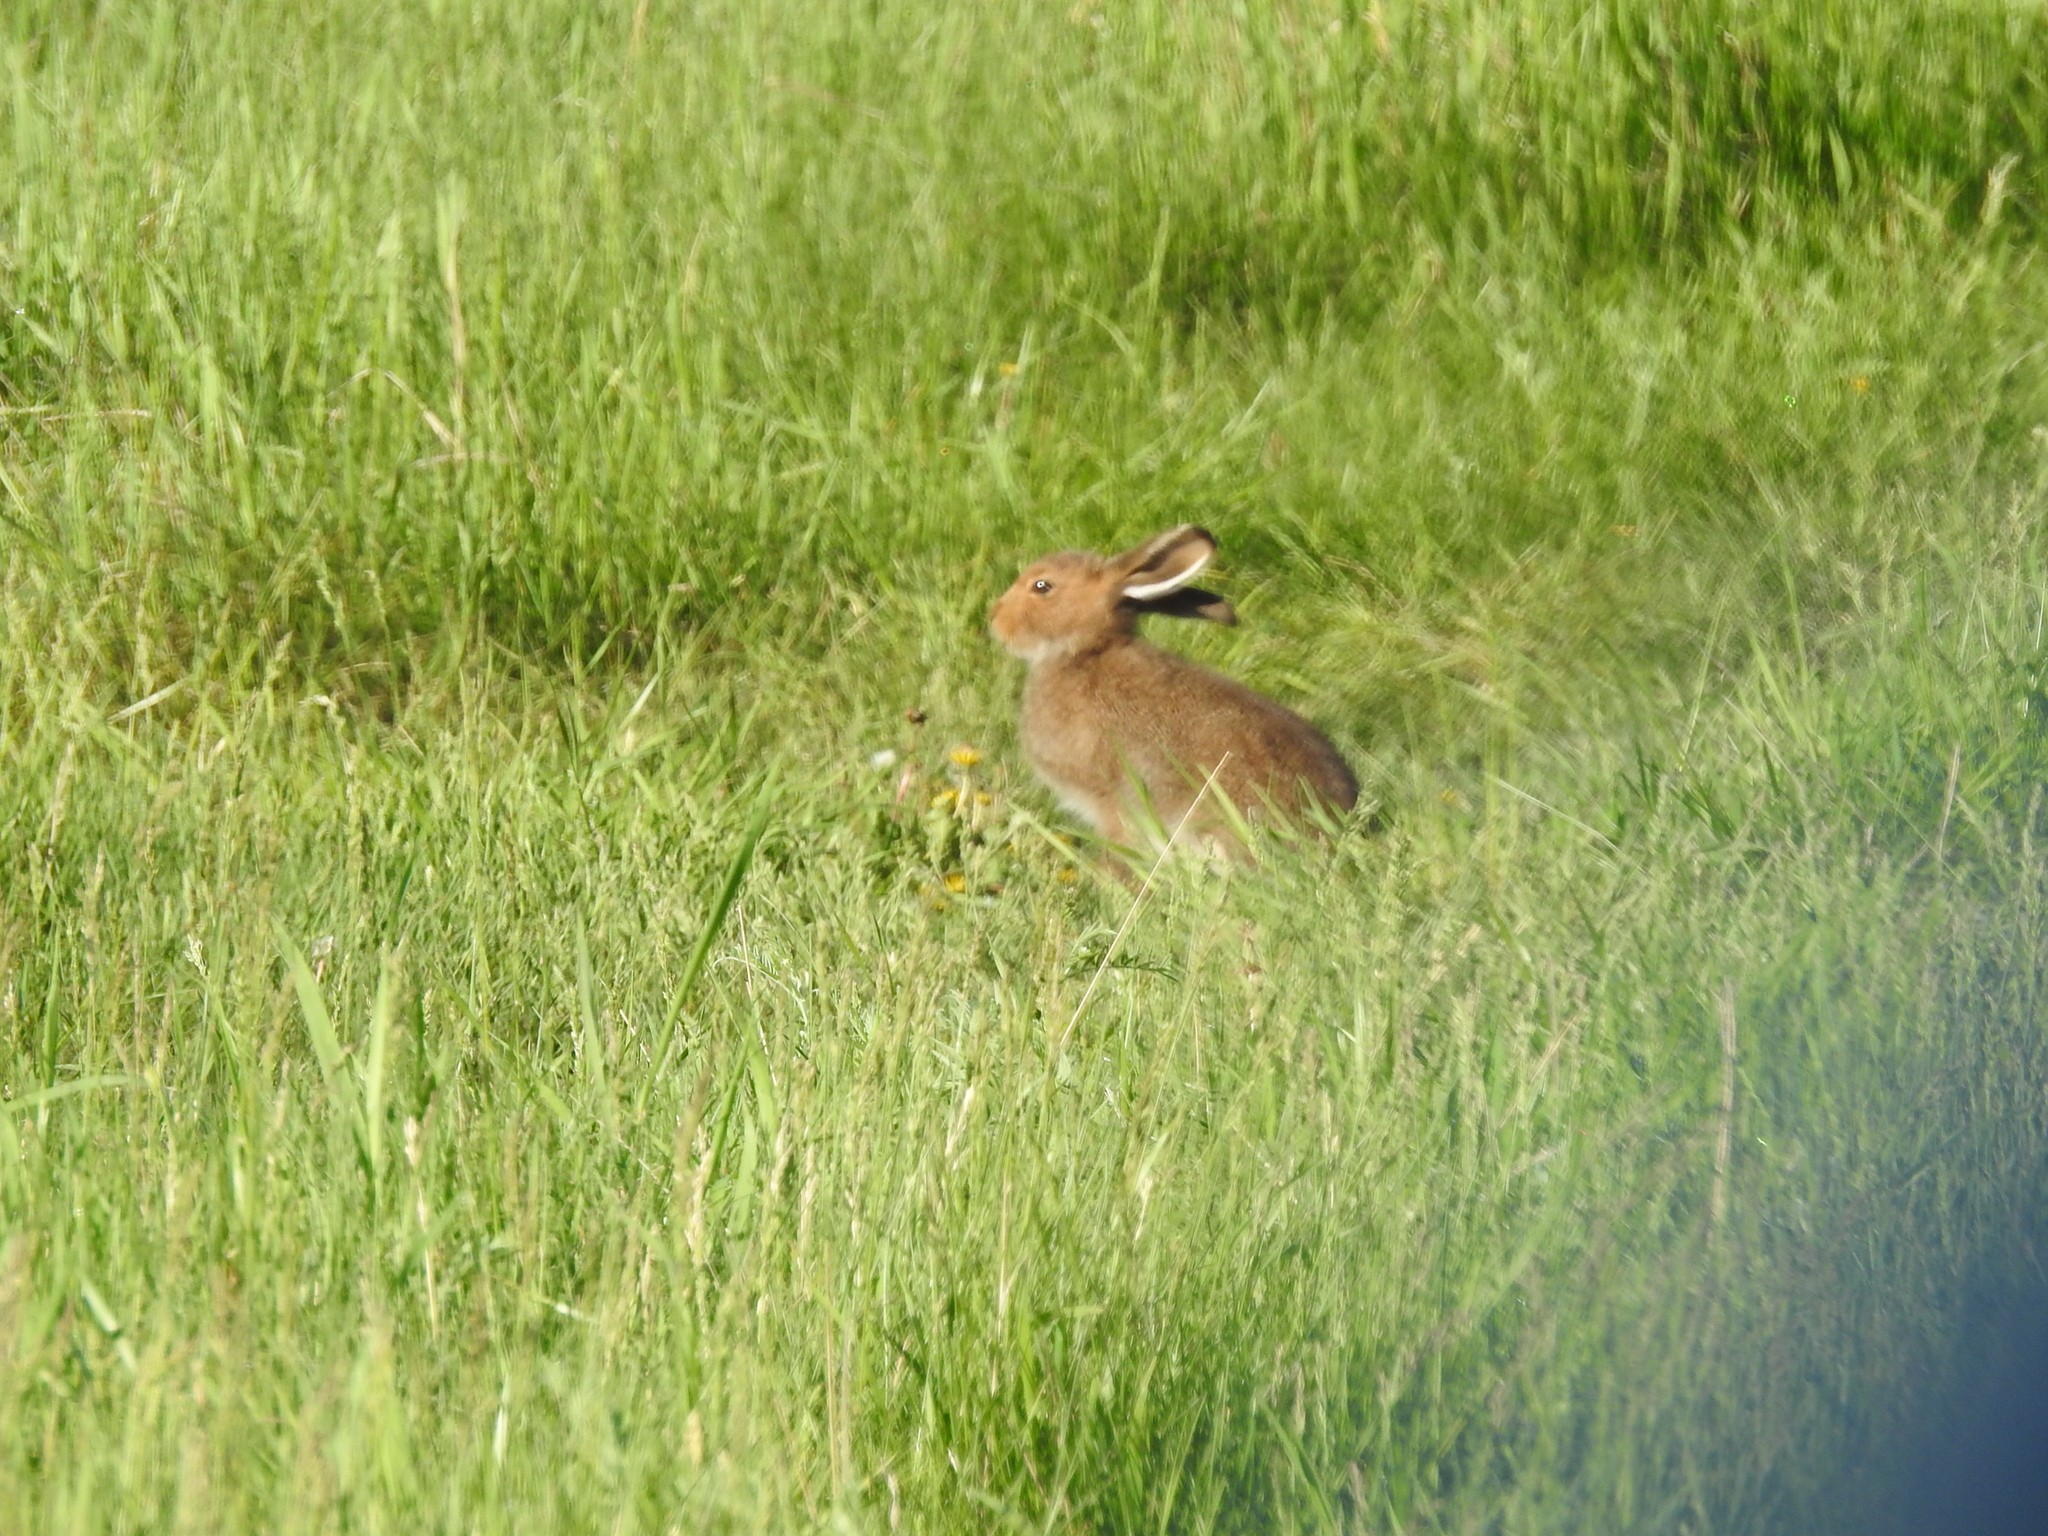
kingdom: Animalia
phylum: Chordata
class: Mammalia
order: Lagomorpha
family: Leporidae
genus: Lepus
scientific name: Lepus timidus
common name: Mountain hare
